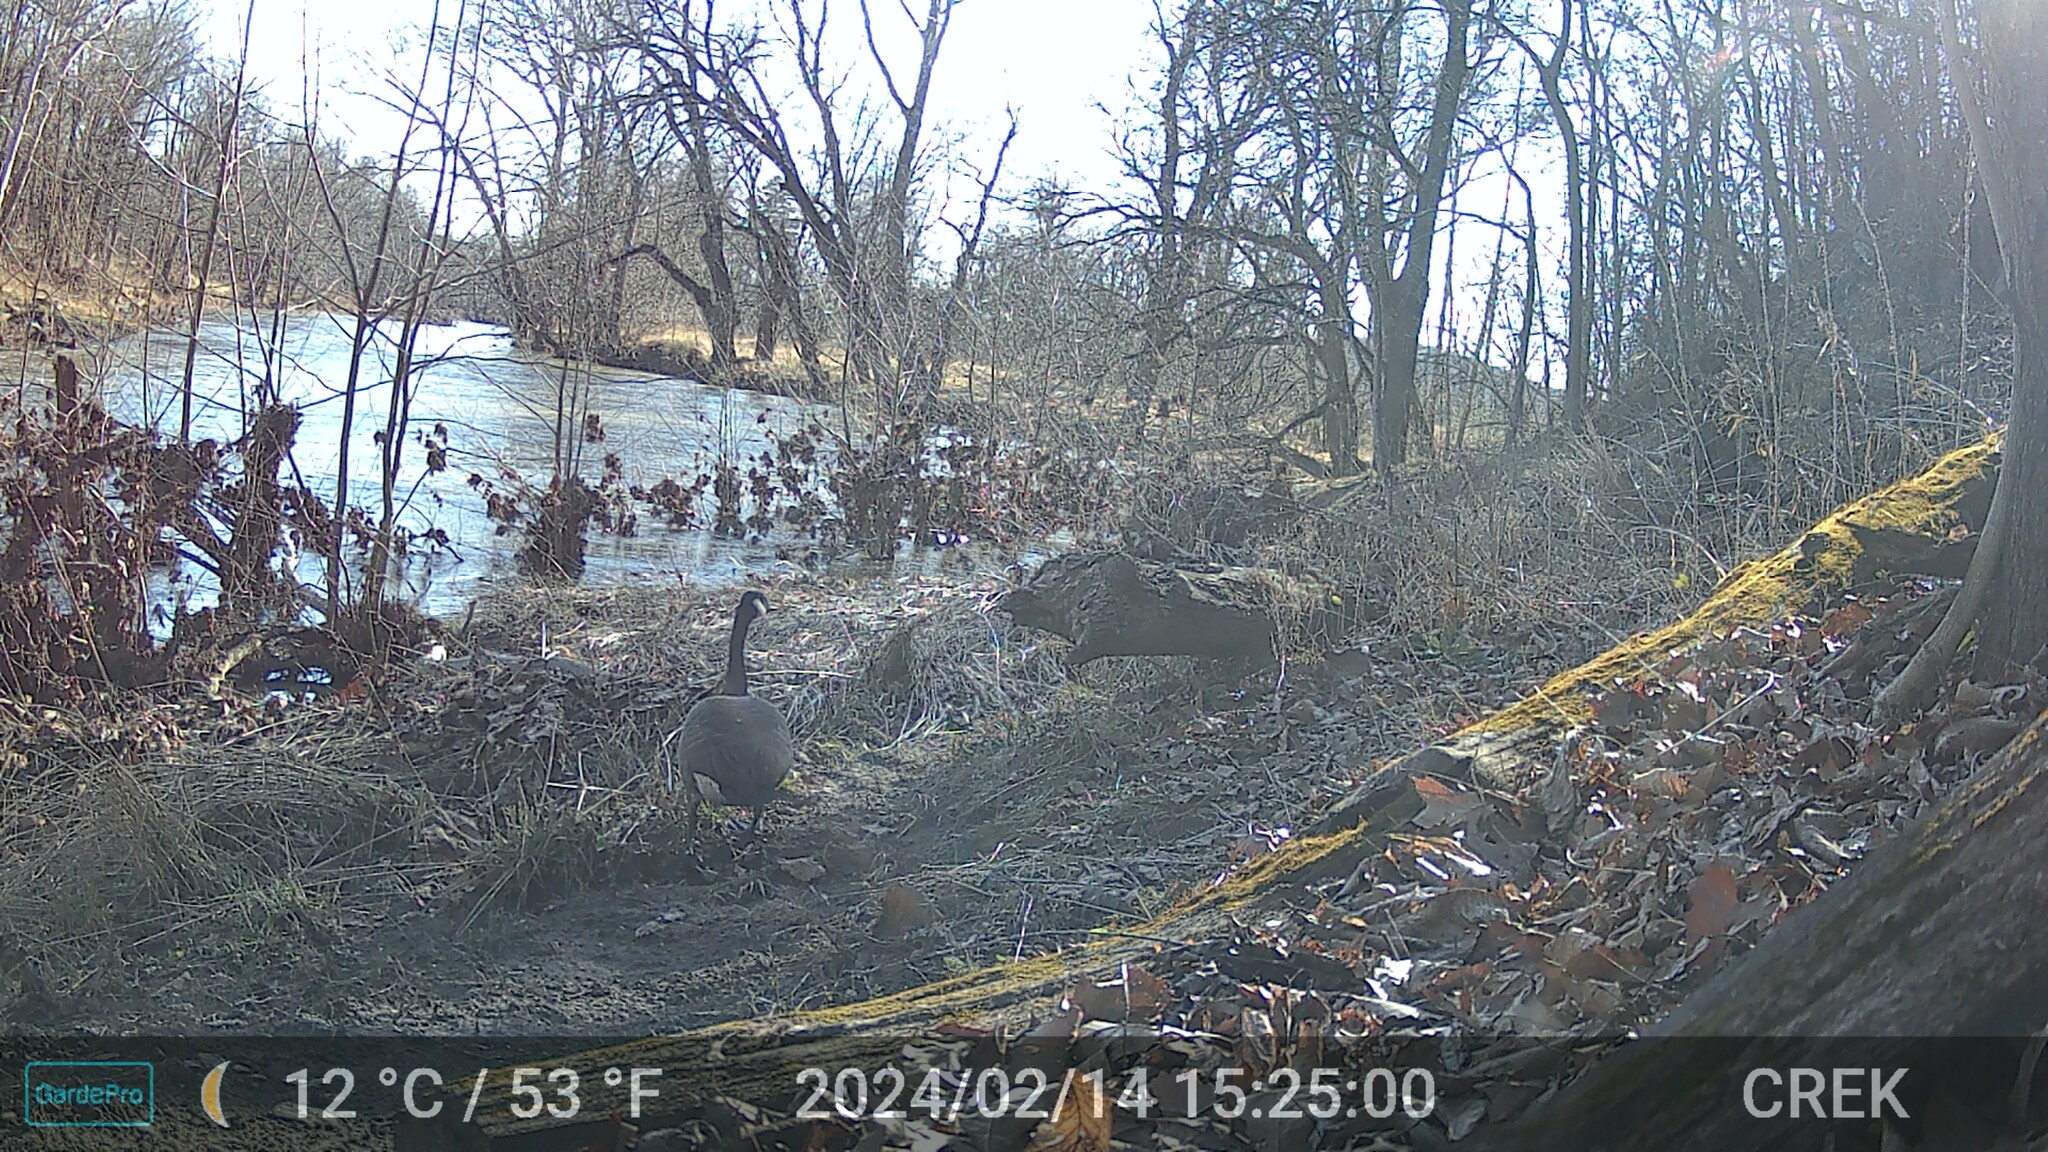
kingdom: Animalia
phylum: Chordata
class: Aves
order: Anseriformes
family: Anatidae
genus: Branta
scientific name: Branta canadensis
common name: Canada goose
